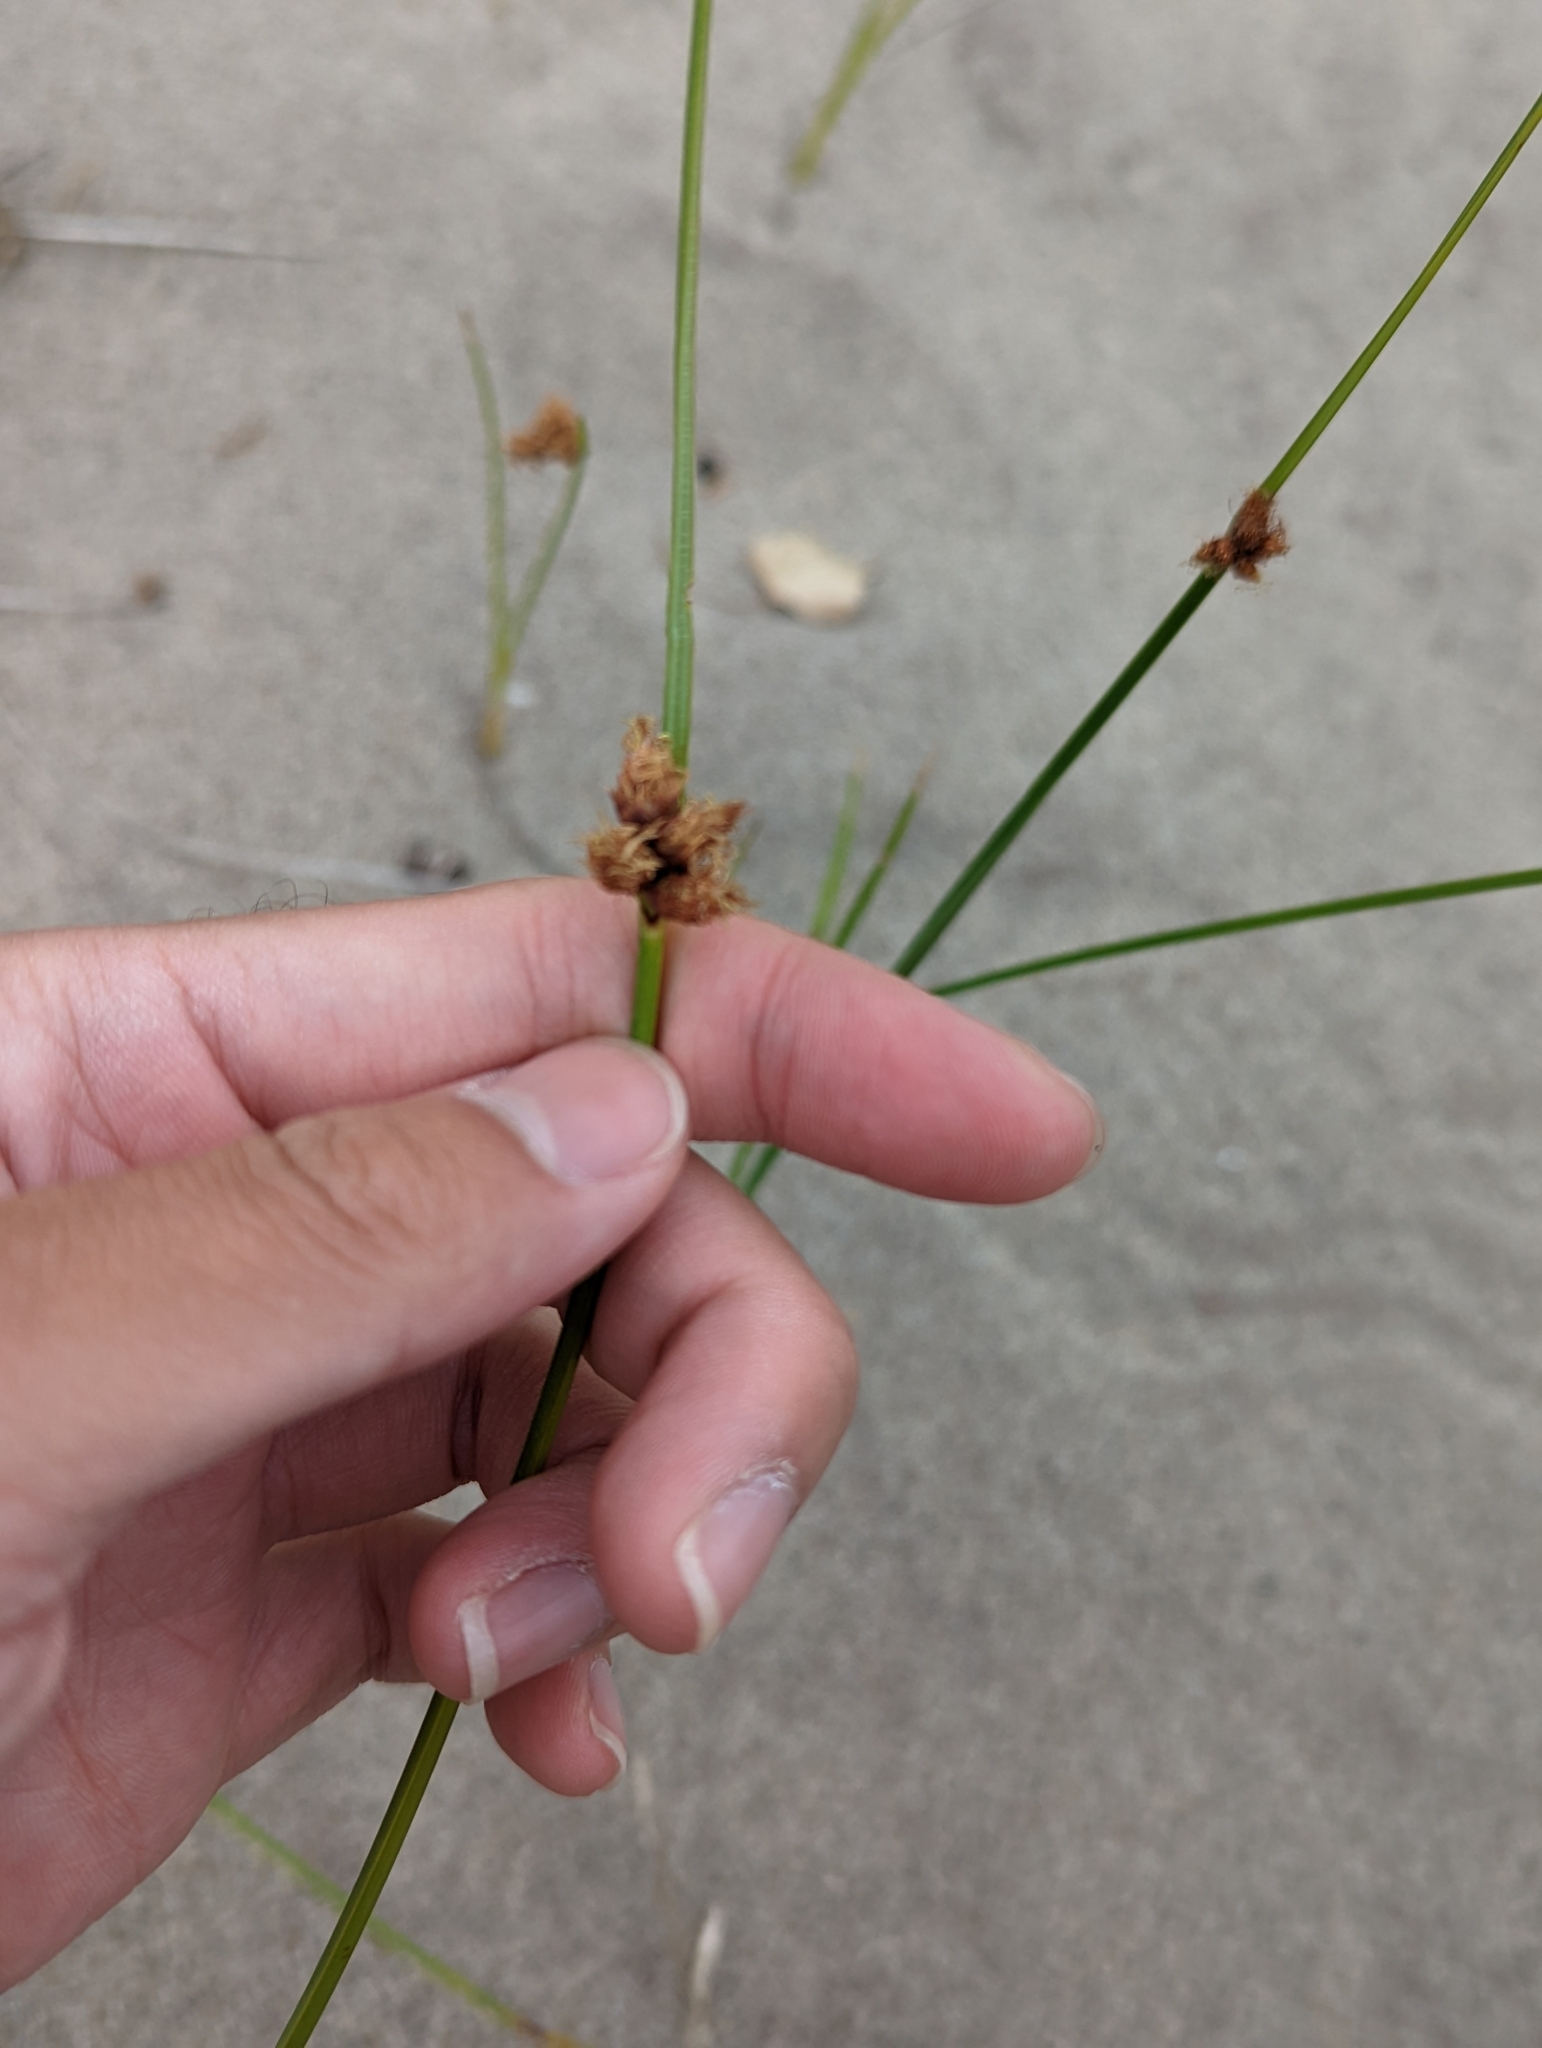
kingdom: Plantae
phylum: Tracheophyta
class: Liliopsida
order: Poales
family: Cyperaceae
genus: Schoenoplectus
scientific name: Schoenoplectus pungens
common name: Sharp club-rush
